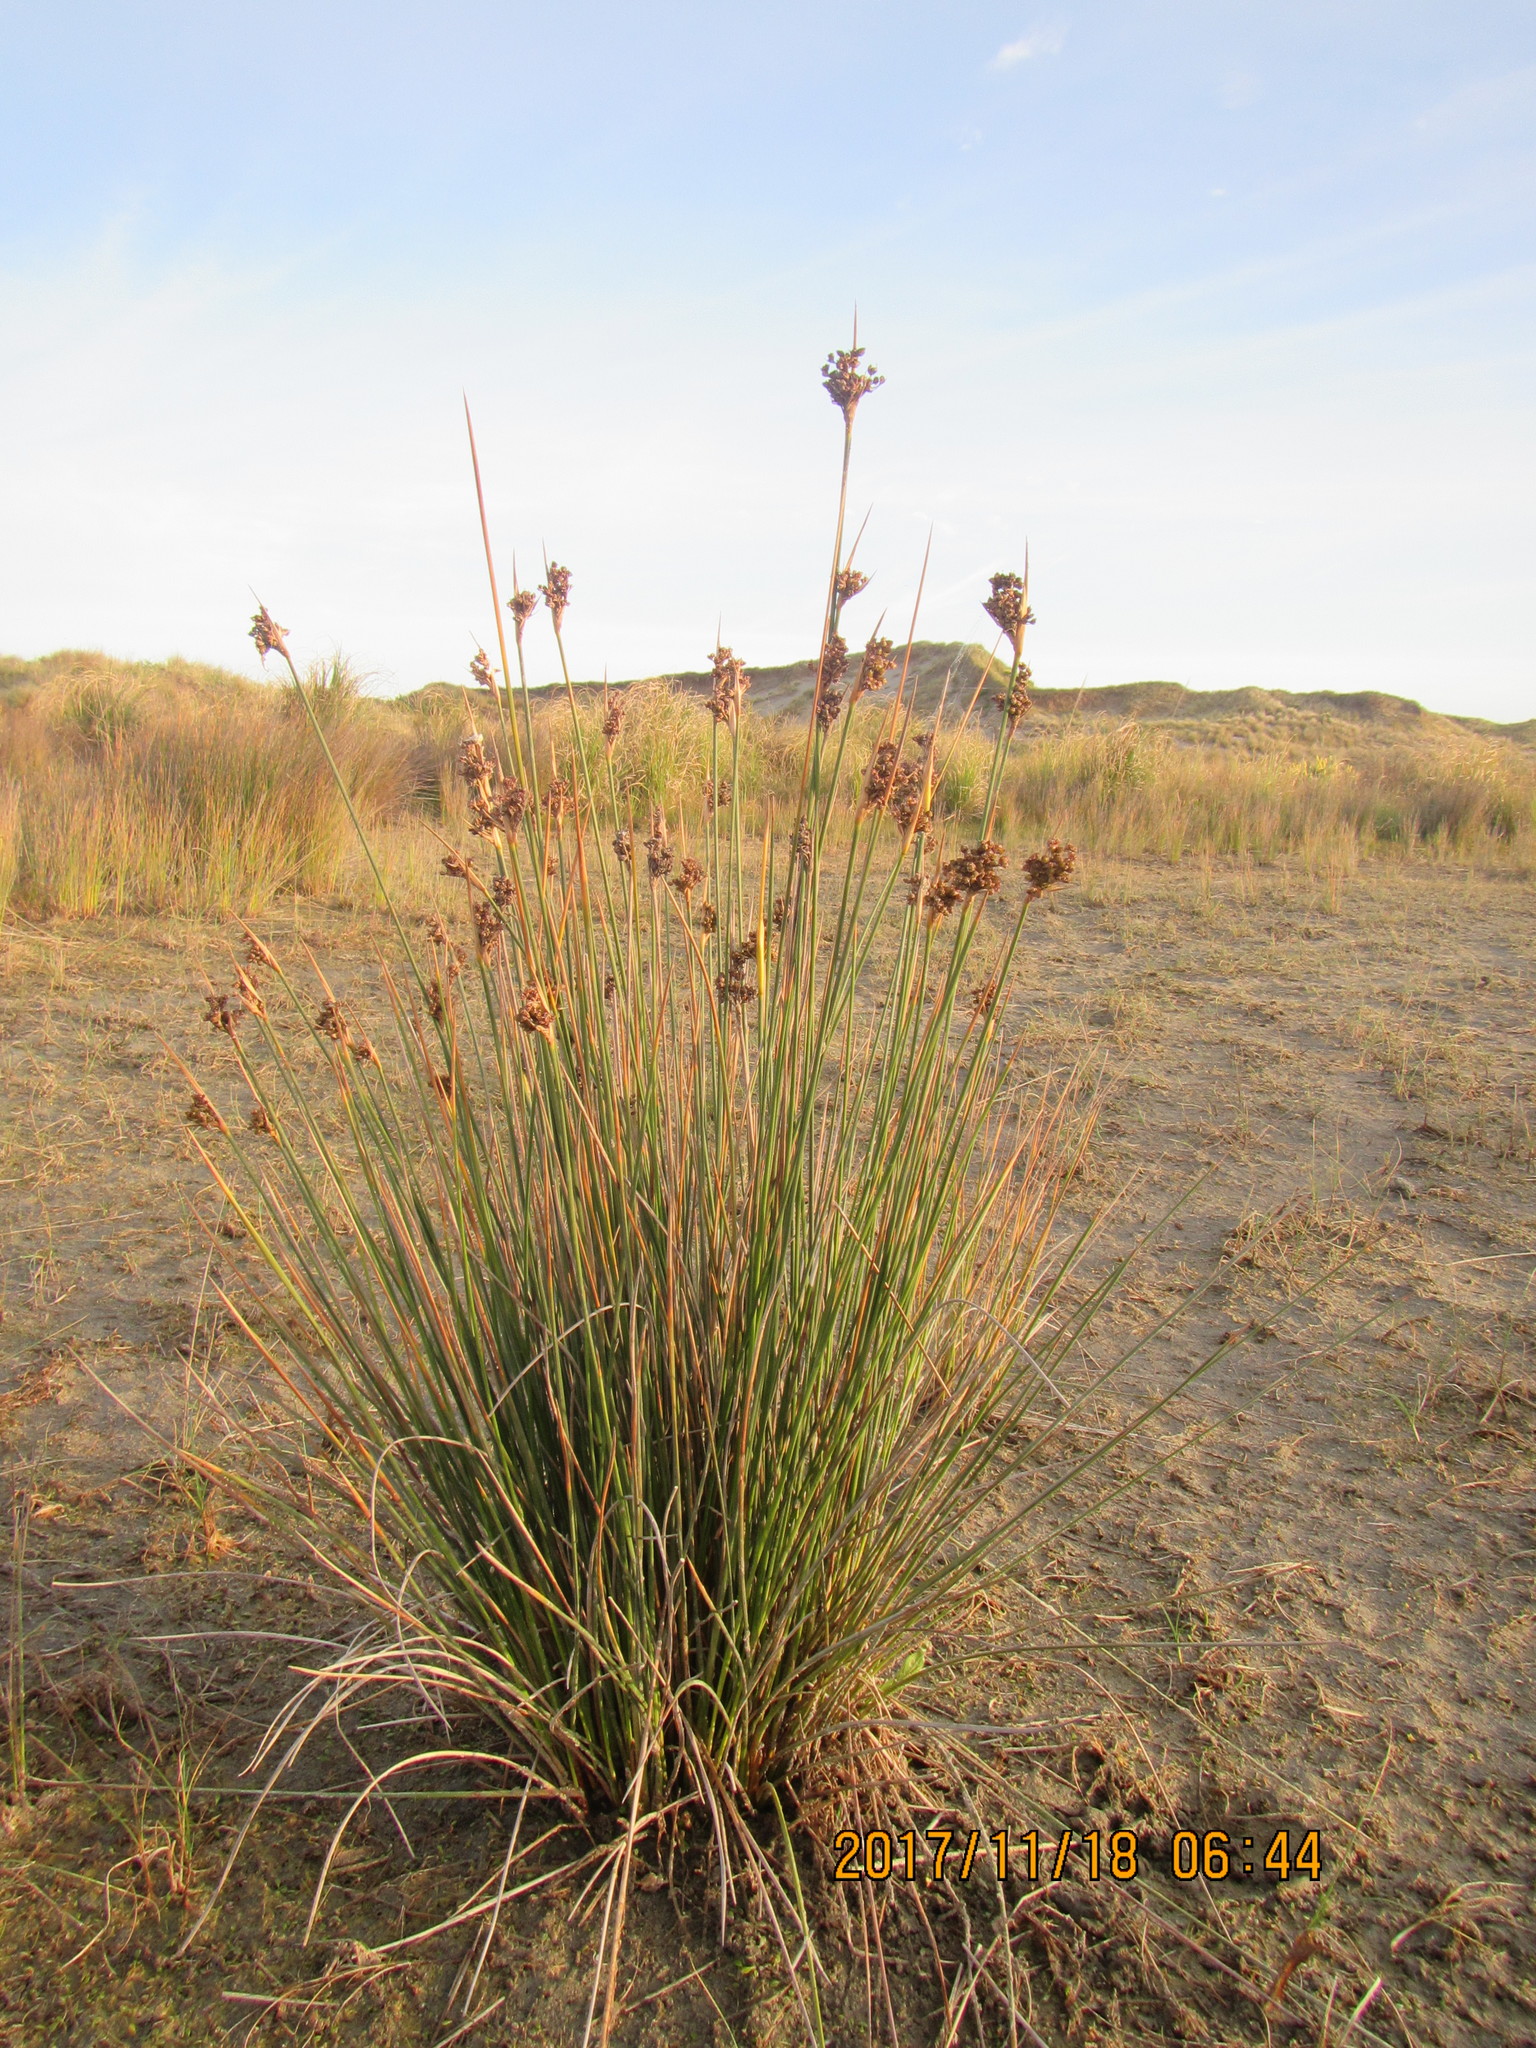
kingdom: Plantae
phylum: Tracheophyta
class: Liliopsida
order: Poales
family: Juncaceae
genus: Juncus
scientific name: Juncus acutus
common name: Sharp rush
